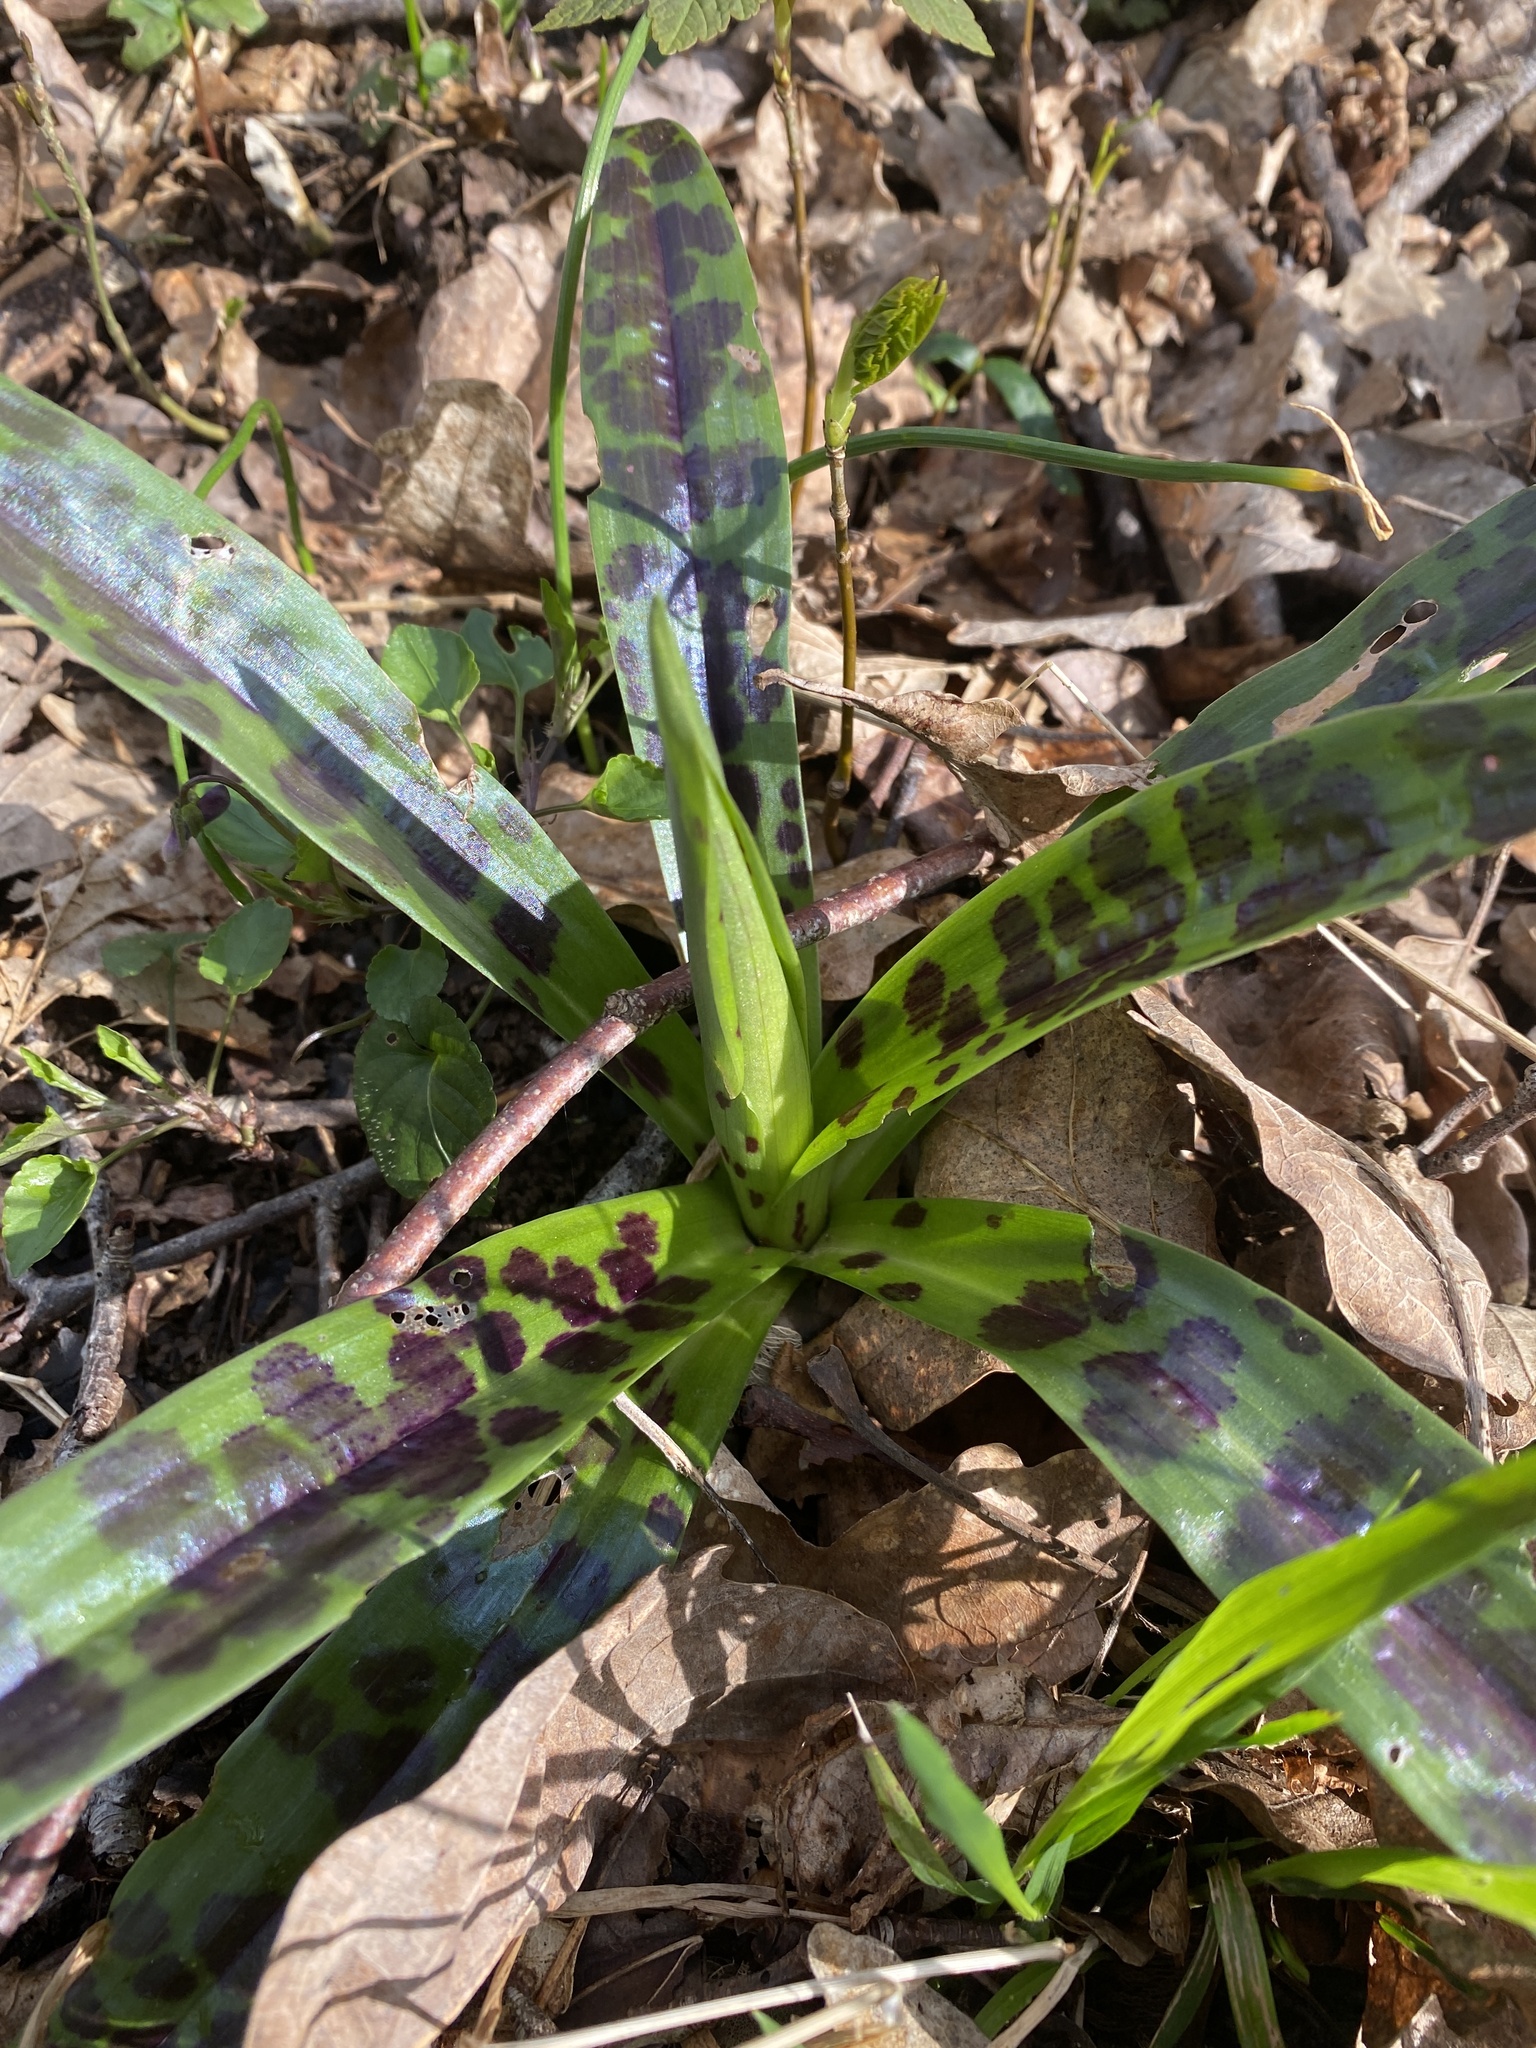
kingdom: Plantae
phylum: Tracheophyta
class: Liliopsida
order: Asparagales
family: Orchidaceae
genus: Orchis
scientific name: Orchis mascula
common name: Early-purple orchid
